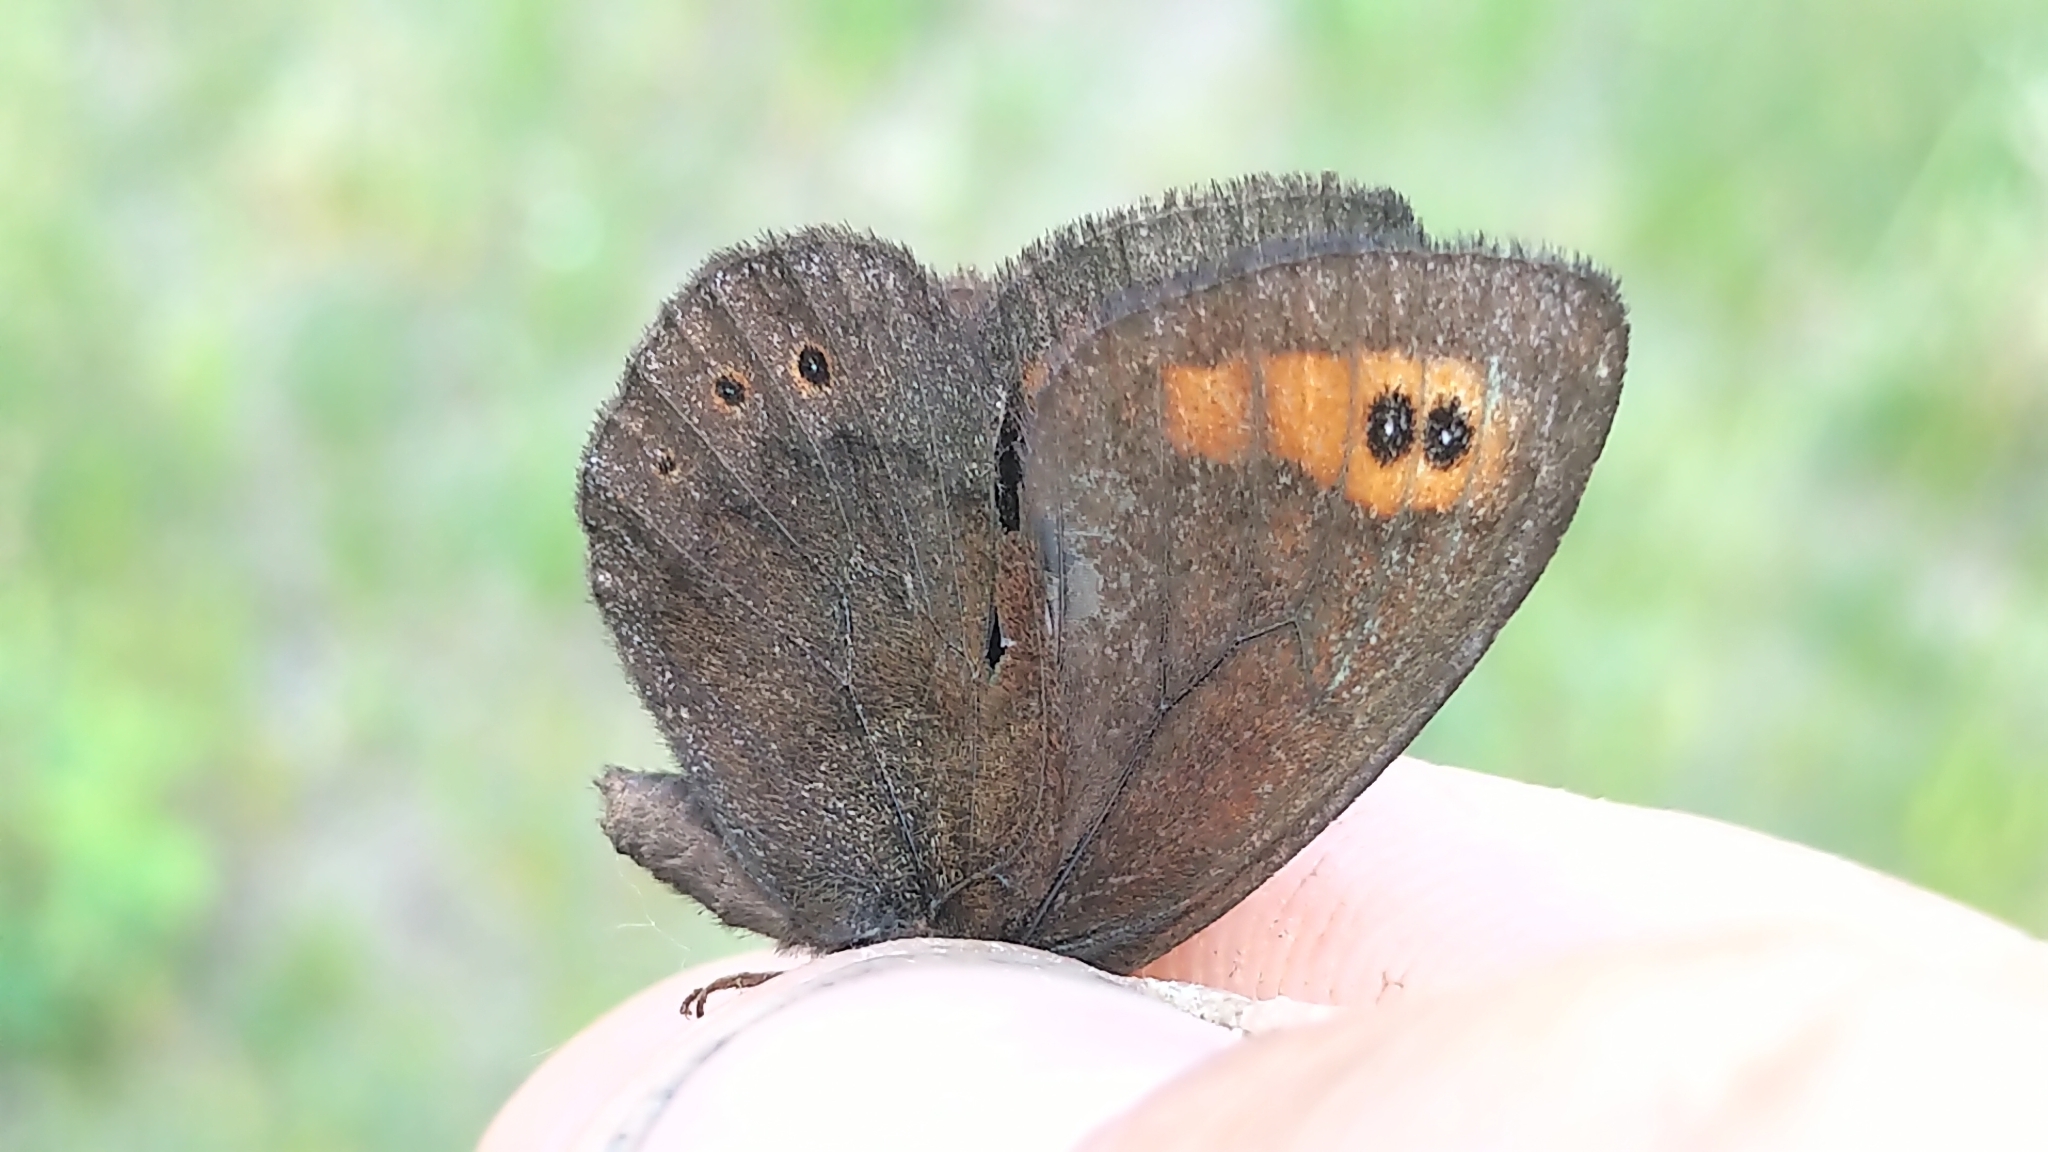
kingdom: Animalia
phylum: Arthropoda
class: Insecta
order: Lepidoptera
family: Nymphalidae
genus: Erebia
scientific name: Erebia epipsodea
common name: Common alpine
